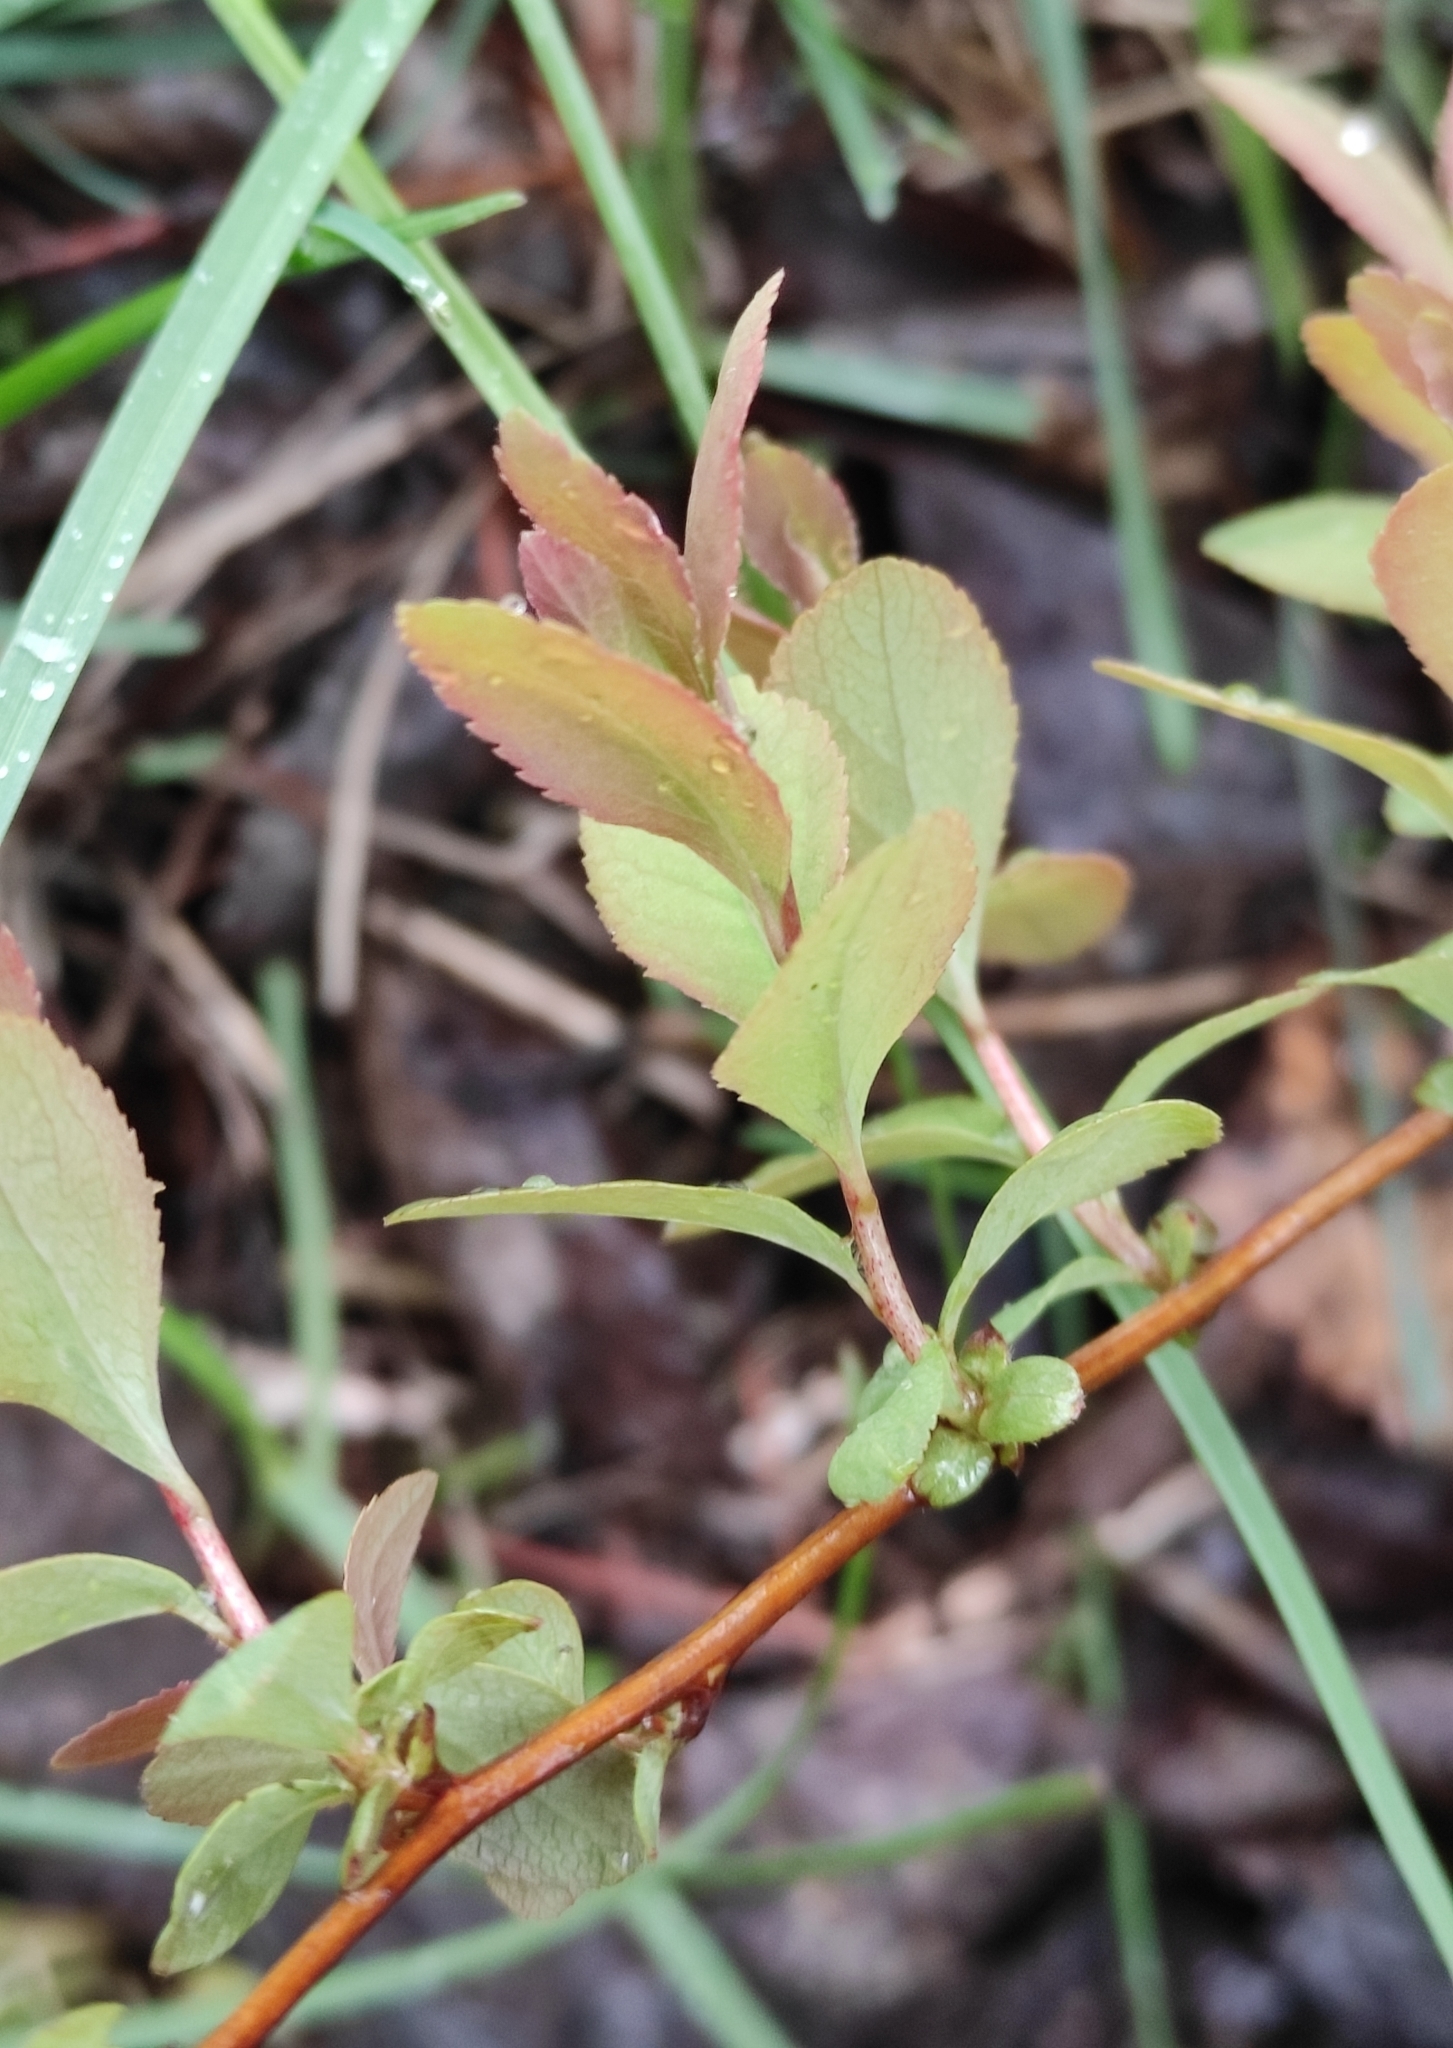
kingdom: Plantae
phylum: Tracheophyta
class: Magnoliopsida
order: Rosales
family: Rosaceae
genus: Spiraea
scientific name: Spiraea salicifolia
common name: Bridewort
